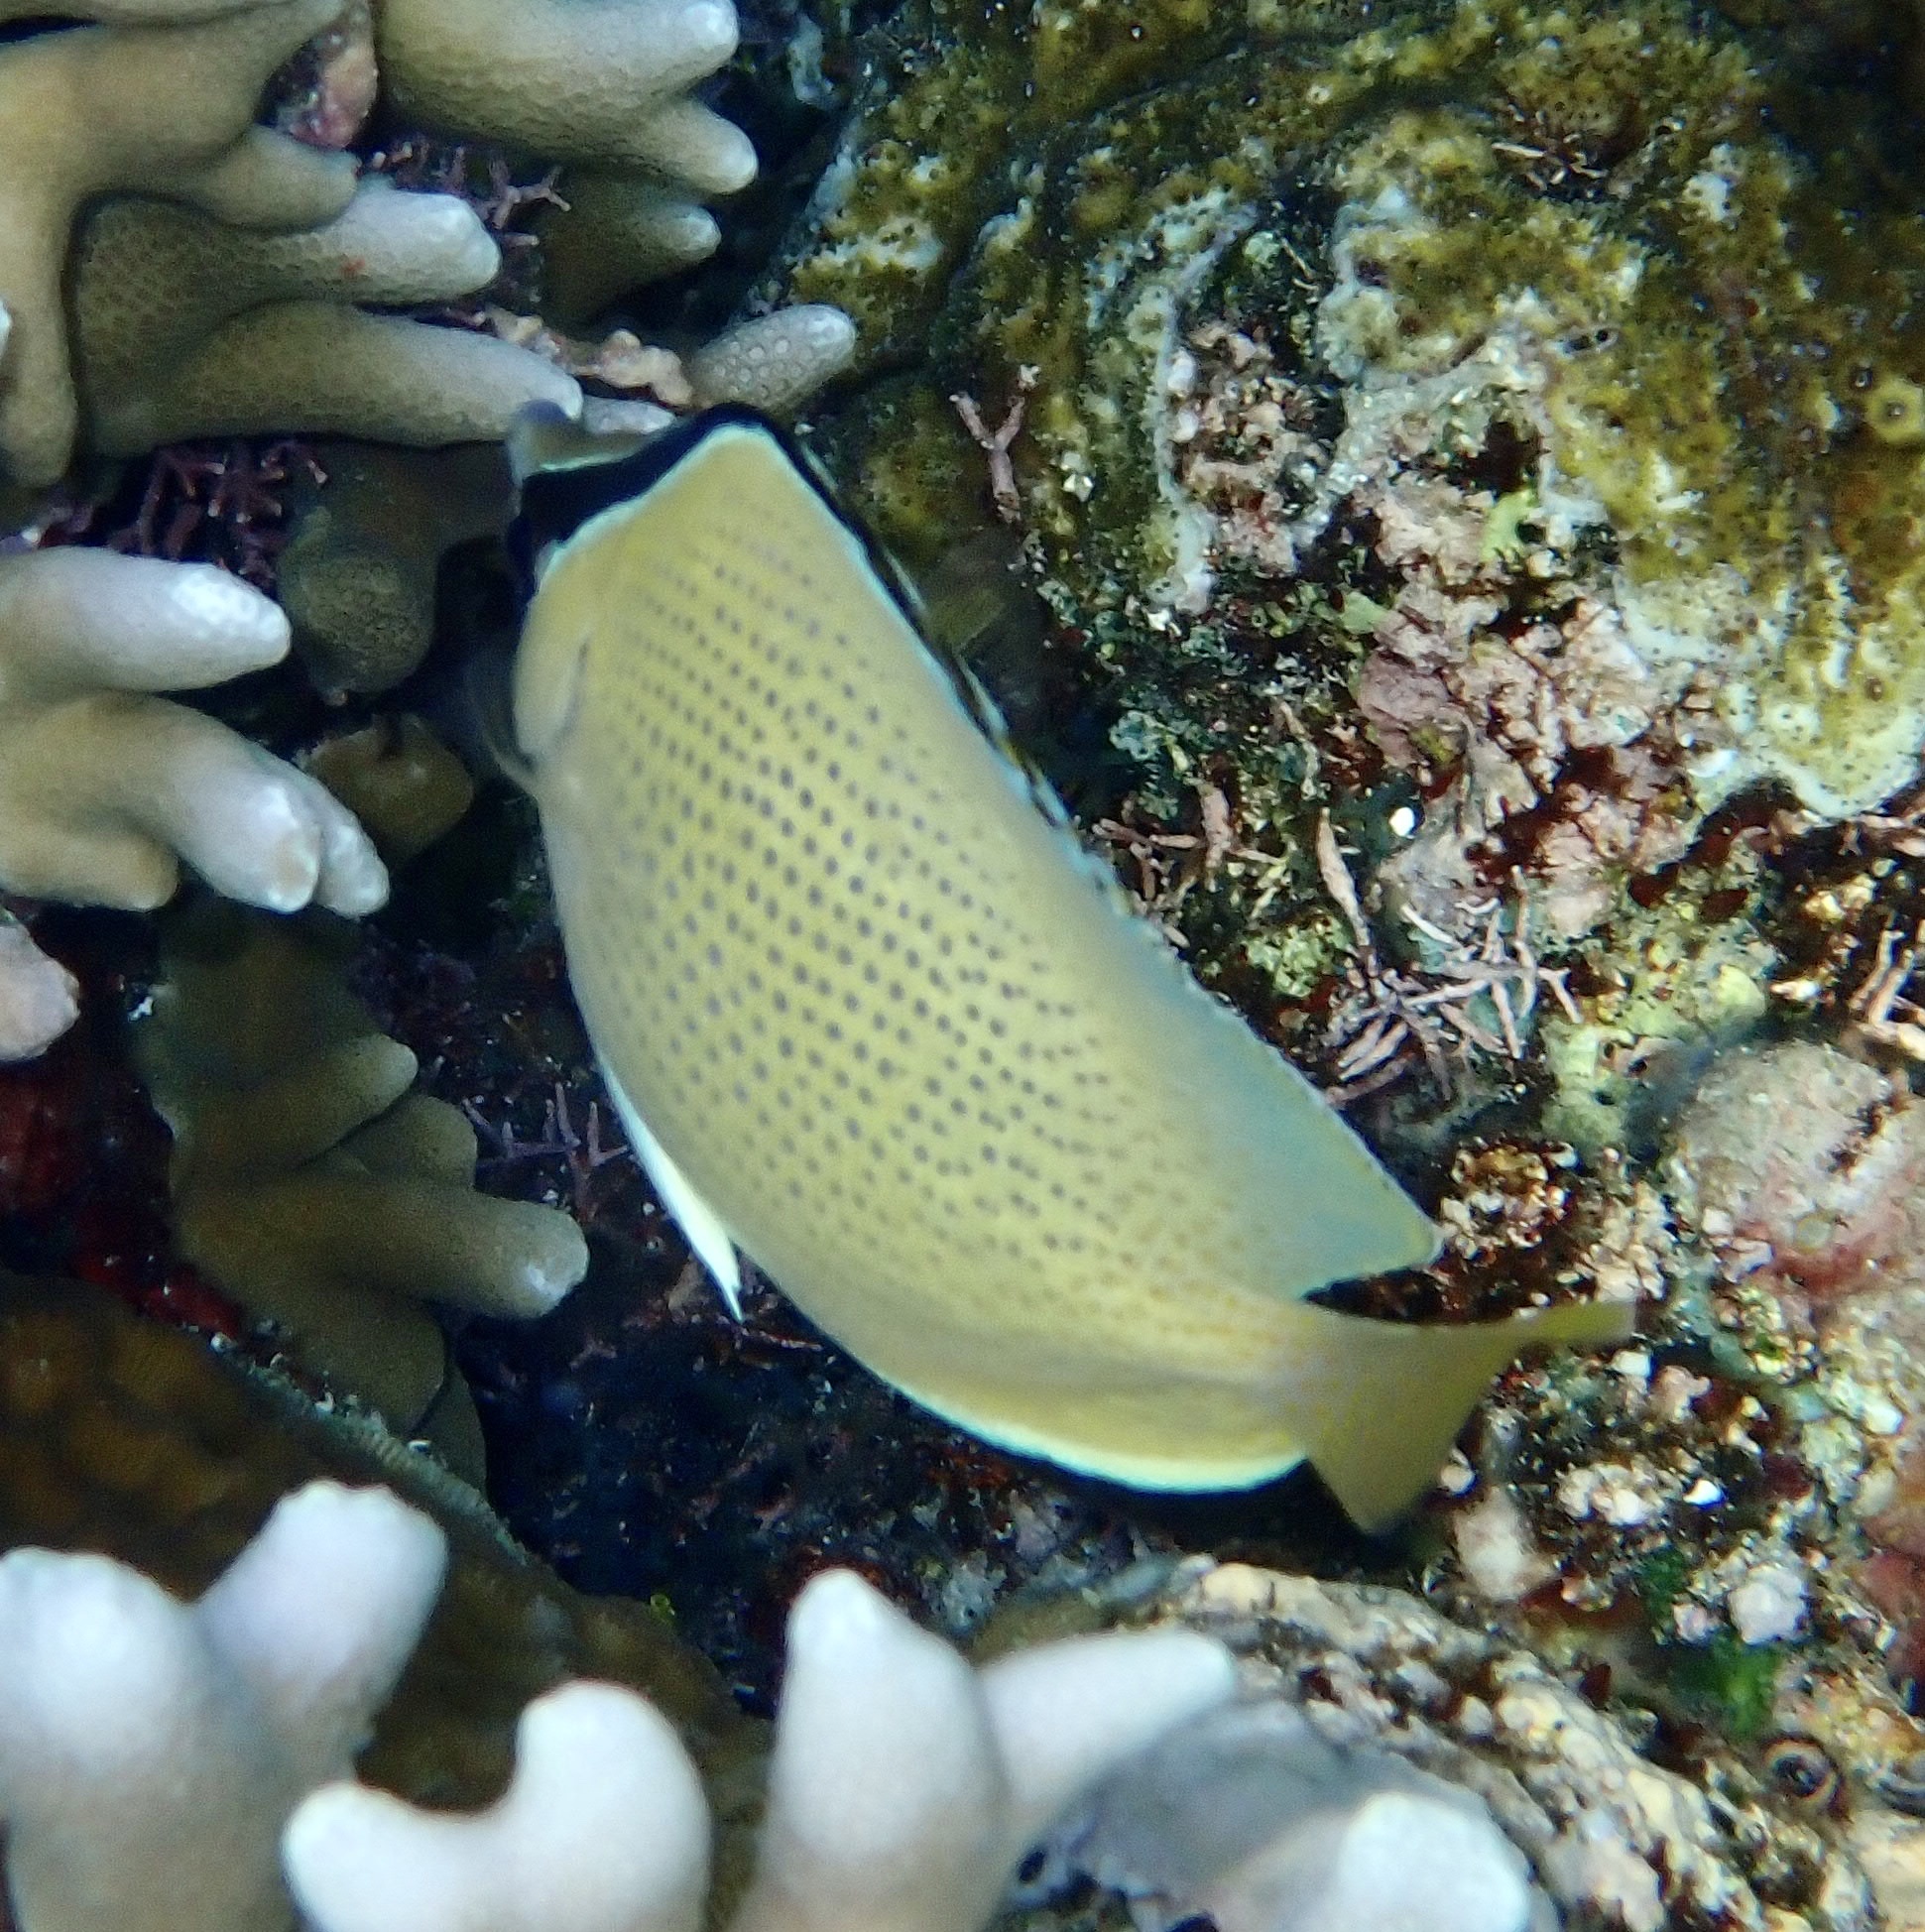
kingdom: Animalia
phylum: Chordata
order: Perciformes
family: Chaetodontidae
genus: Chaetodon
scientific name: Chaetodon citrinellus
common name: Speckled butterflyfish
